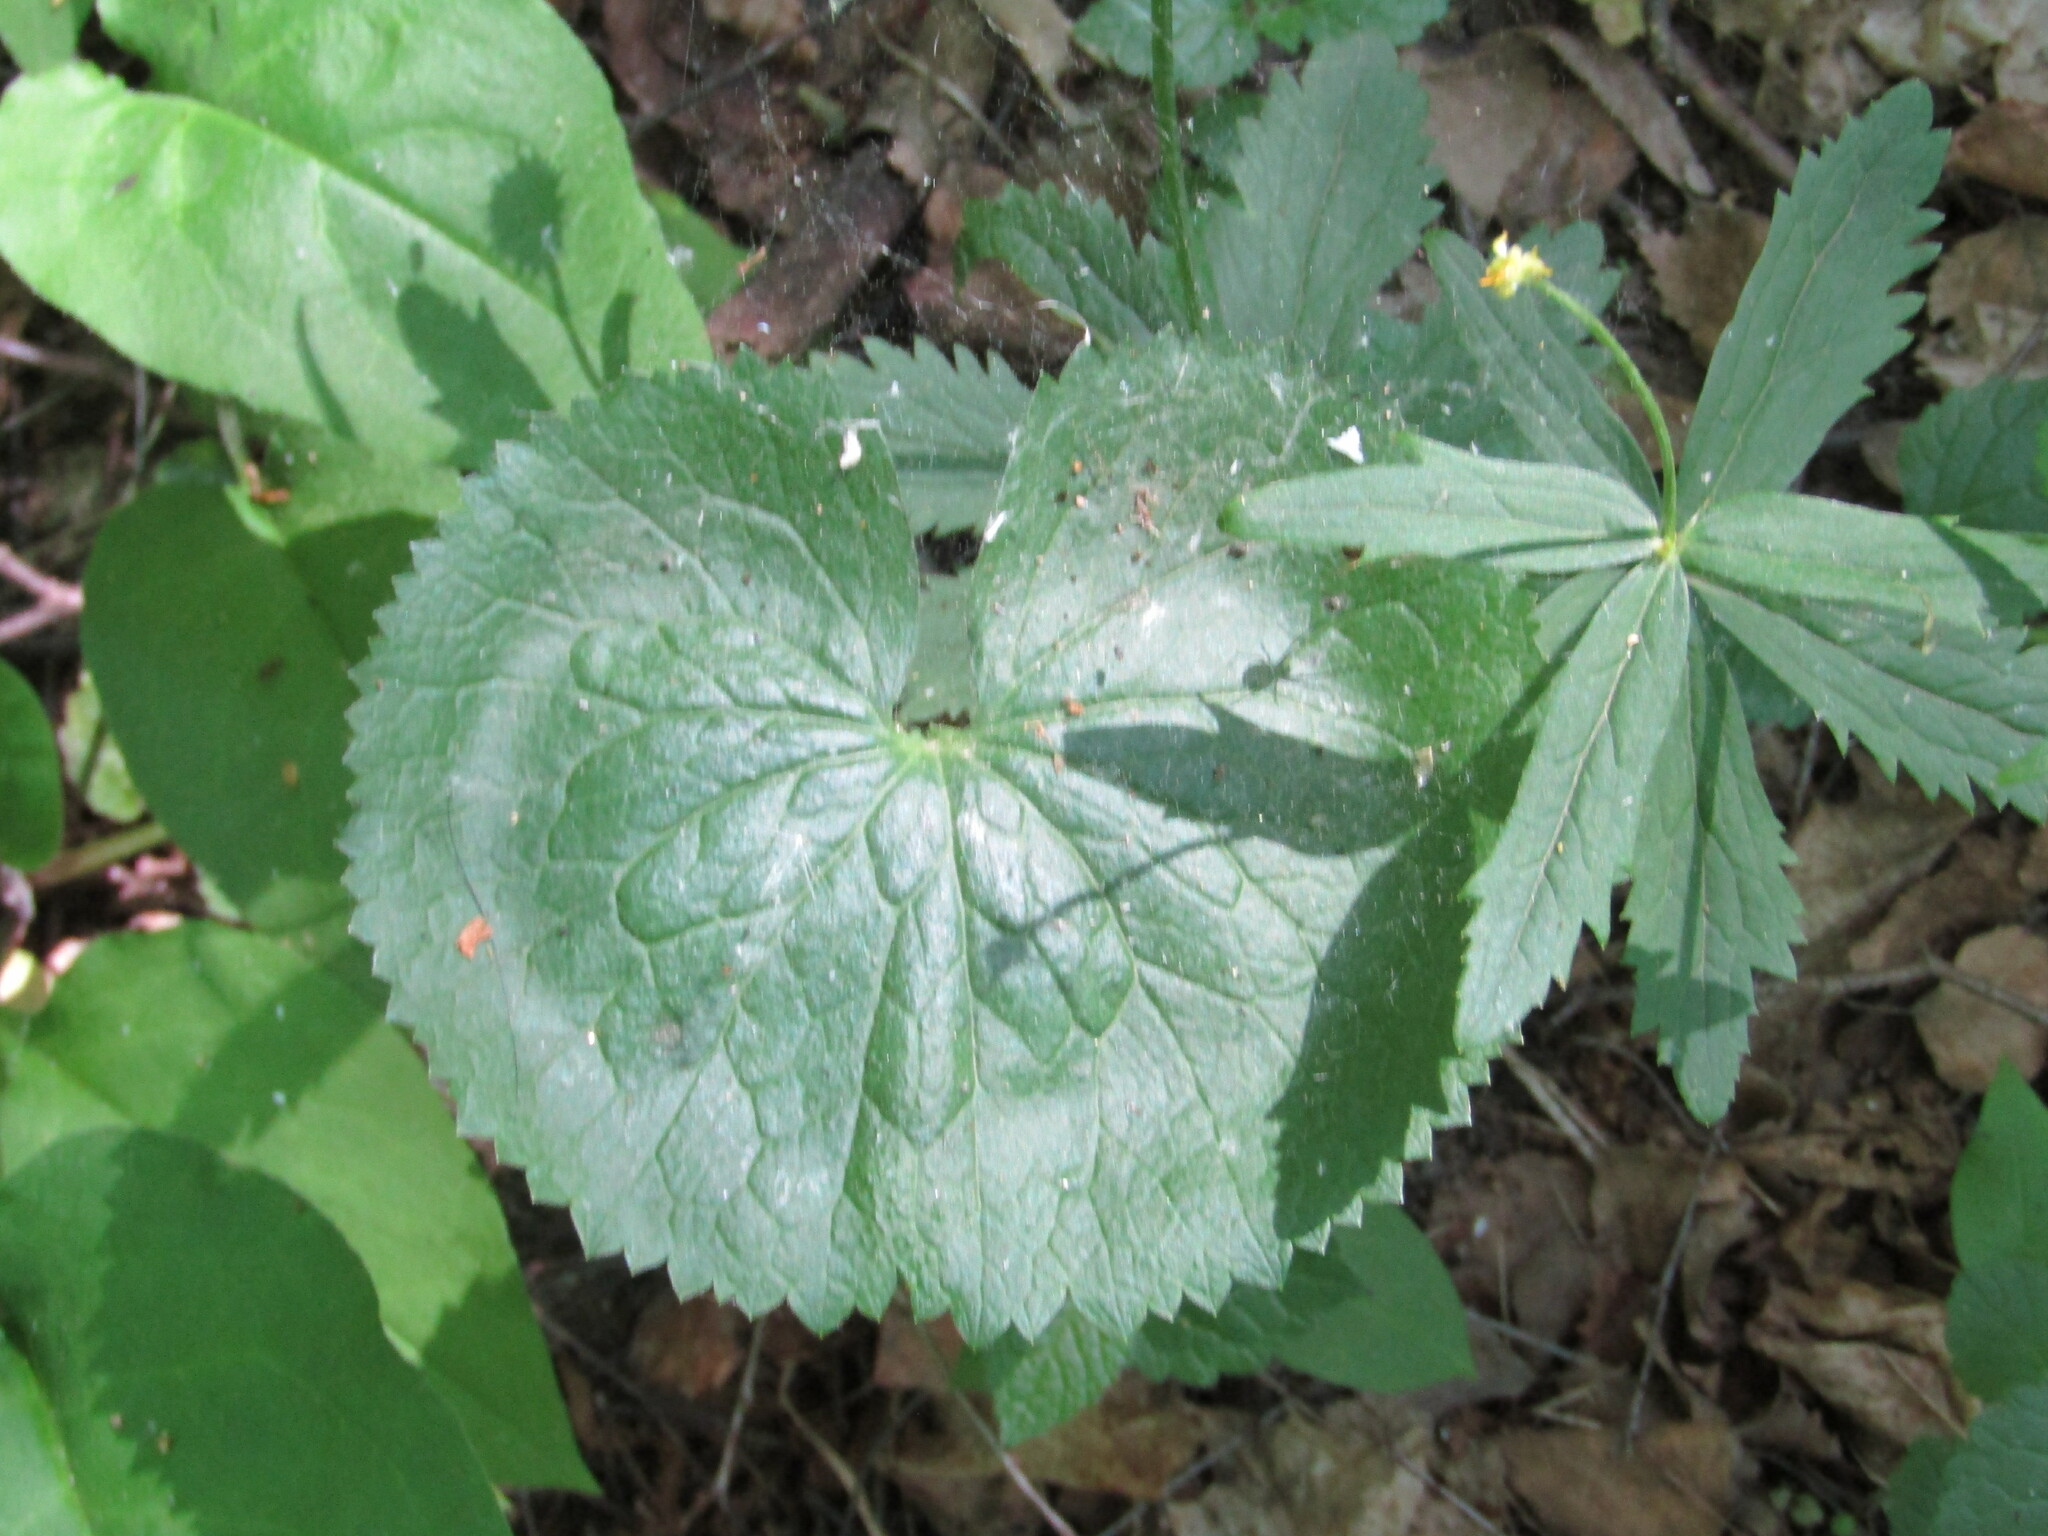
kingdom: Plantae
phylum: Tracheophyta
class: Magnoliopsida
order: Ranunculales
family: Ranunculaceae
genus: Ranunculus
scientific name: Ranunculus cassubicus
